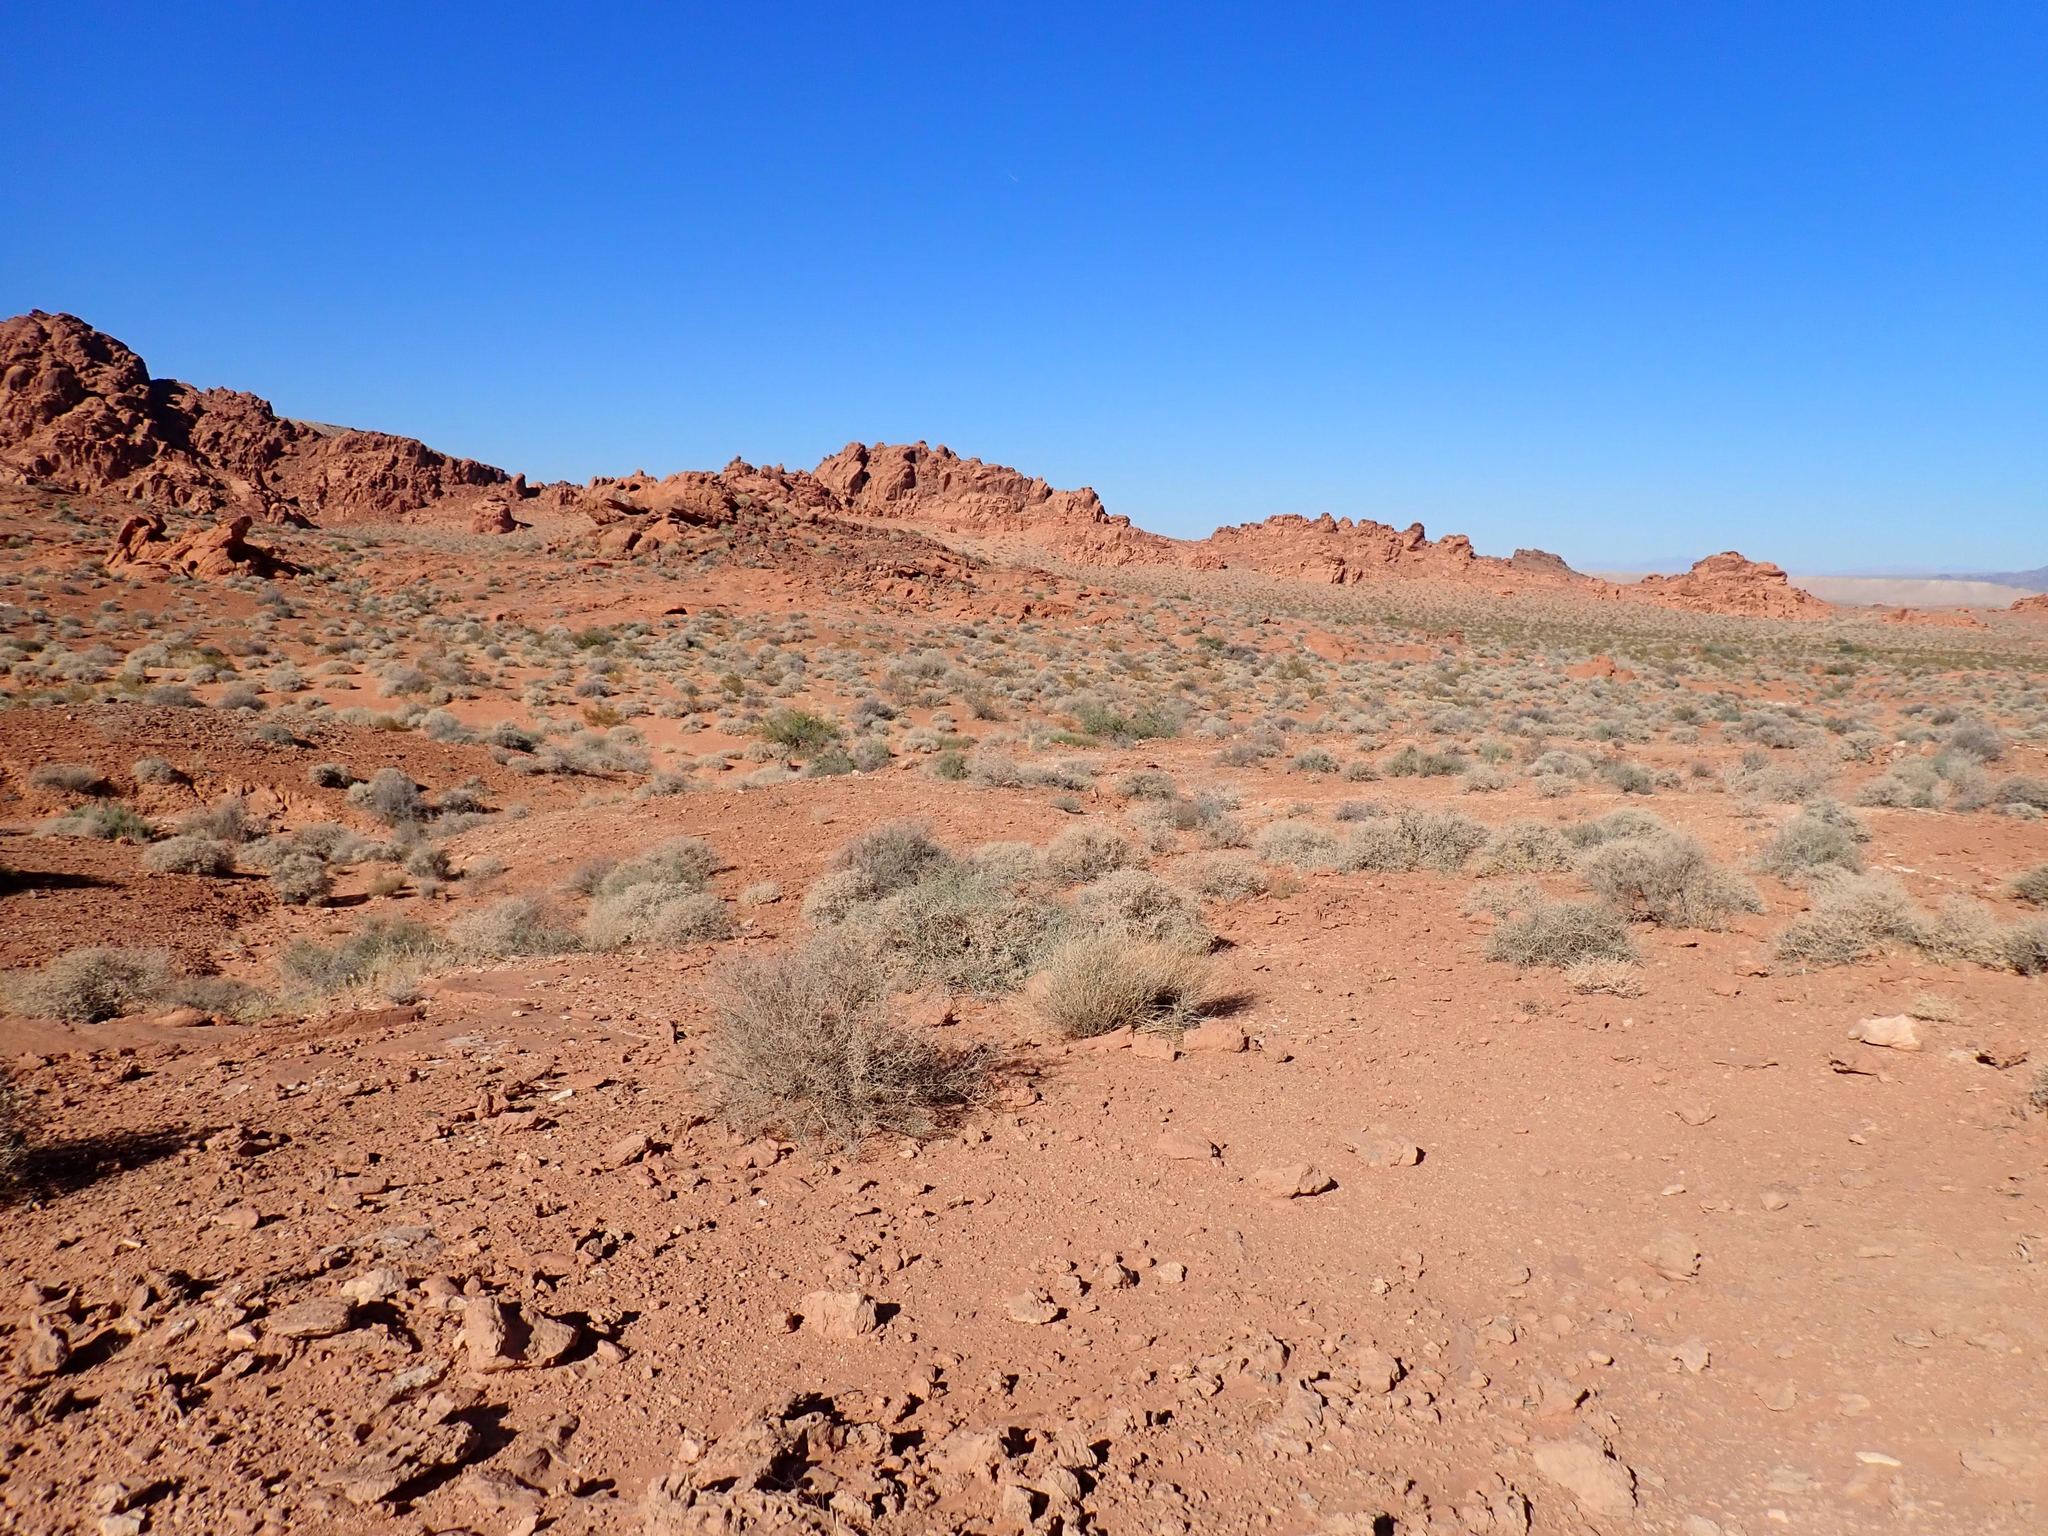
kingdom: Plantae
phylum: Tracheophyta
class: Magnoliopsida
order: Asterales
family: Asteraceae
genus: Ambrosia
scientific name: Ambrosia dumosa
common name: Bur-sage
